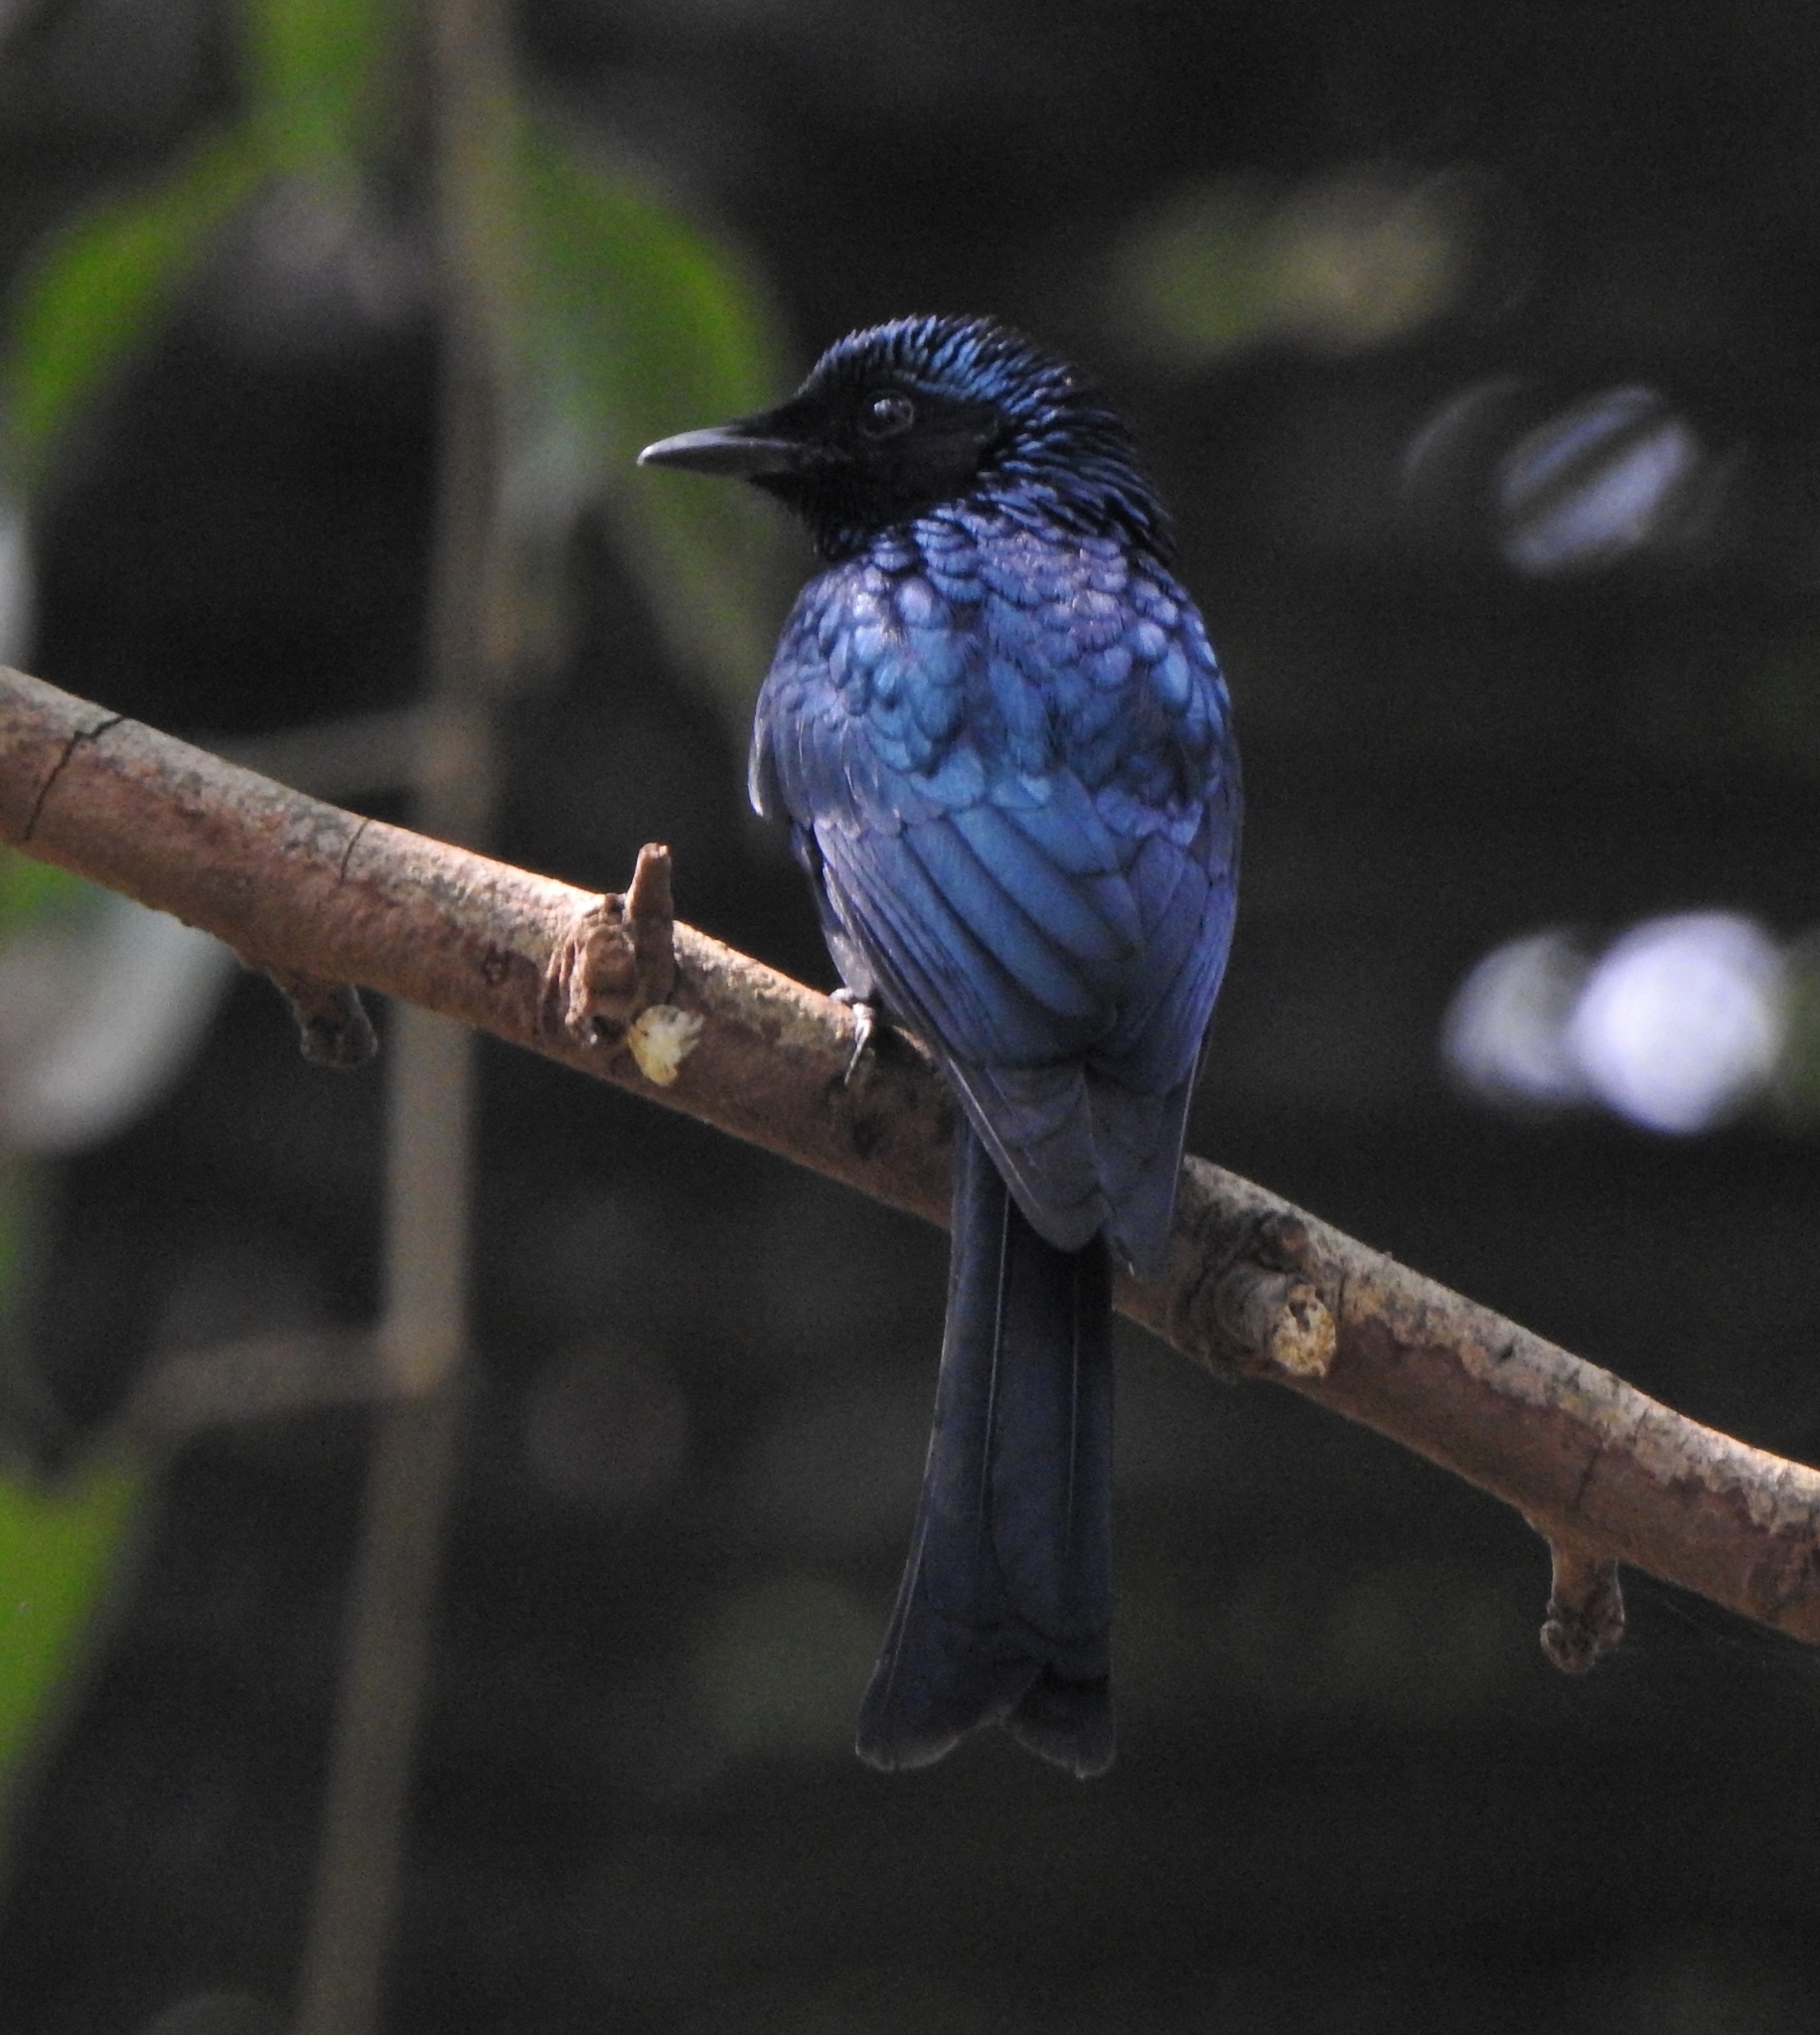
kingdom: Animalia
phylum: Chordata
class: Aves
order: Passeriformes
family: Dicruridae
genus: Dicrurus
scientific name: Dicrurus aeneus
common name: Bronzed drongo
